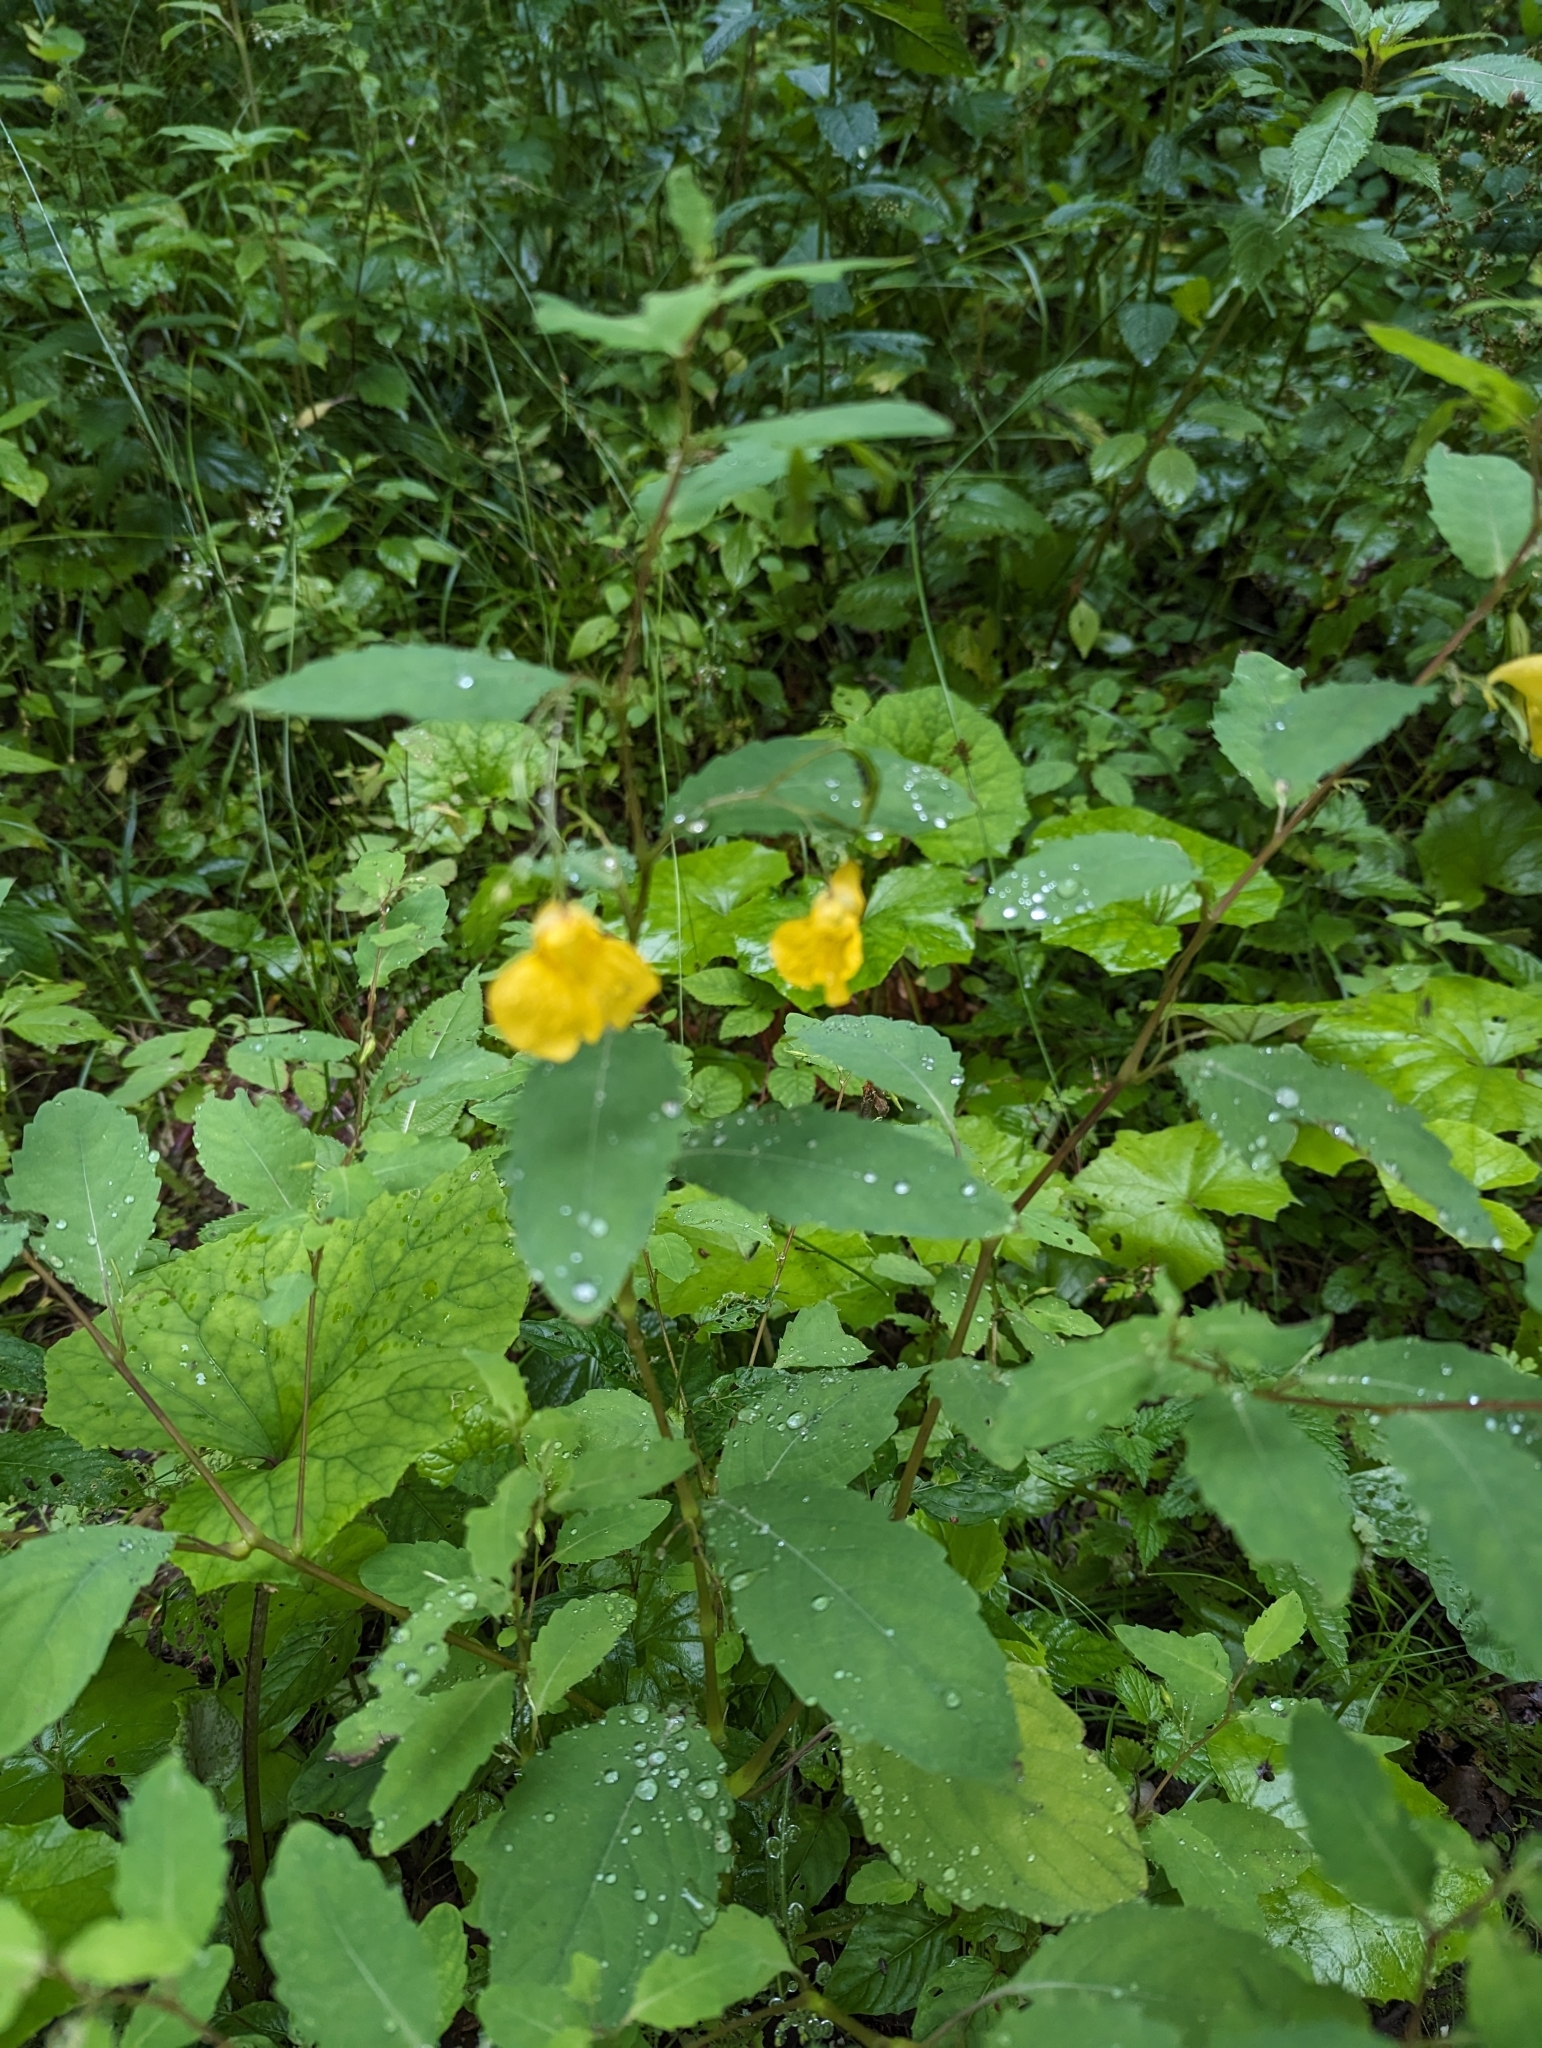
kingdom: Plantae
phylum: Tracheophyta
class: Magnoliopsida
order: Ericales
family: Balsaminaceae
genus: Impatiens
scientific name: Impatiens noli-tangere
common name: Touch-me-not balsam
